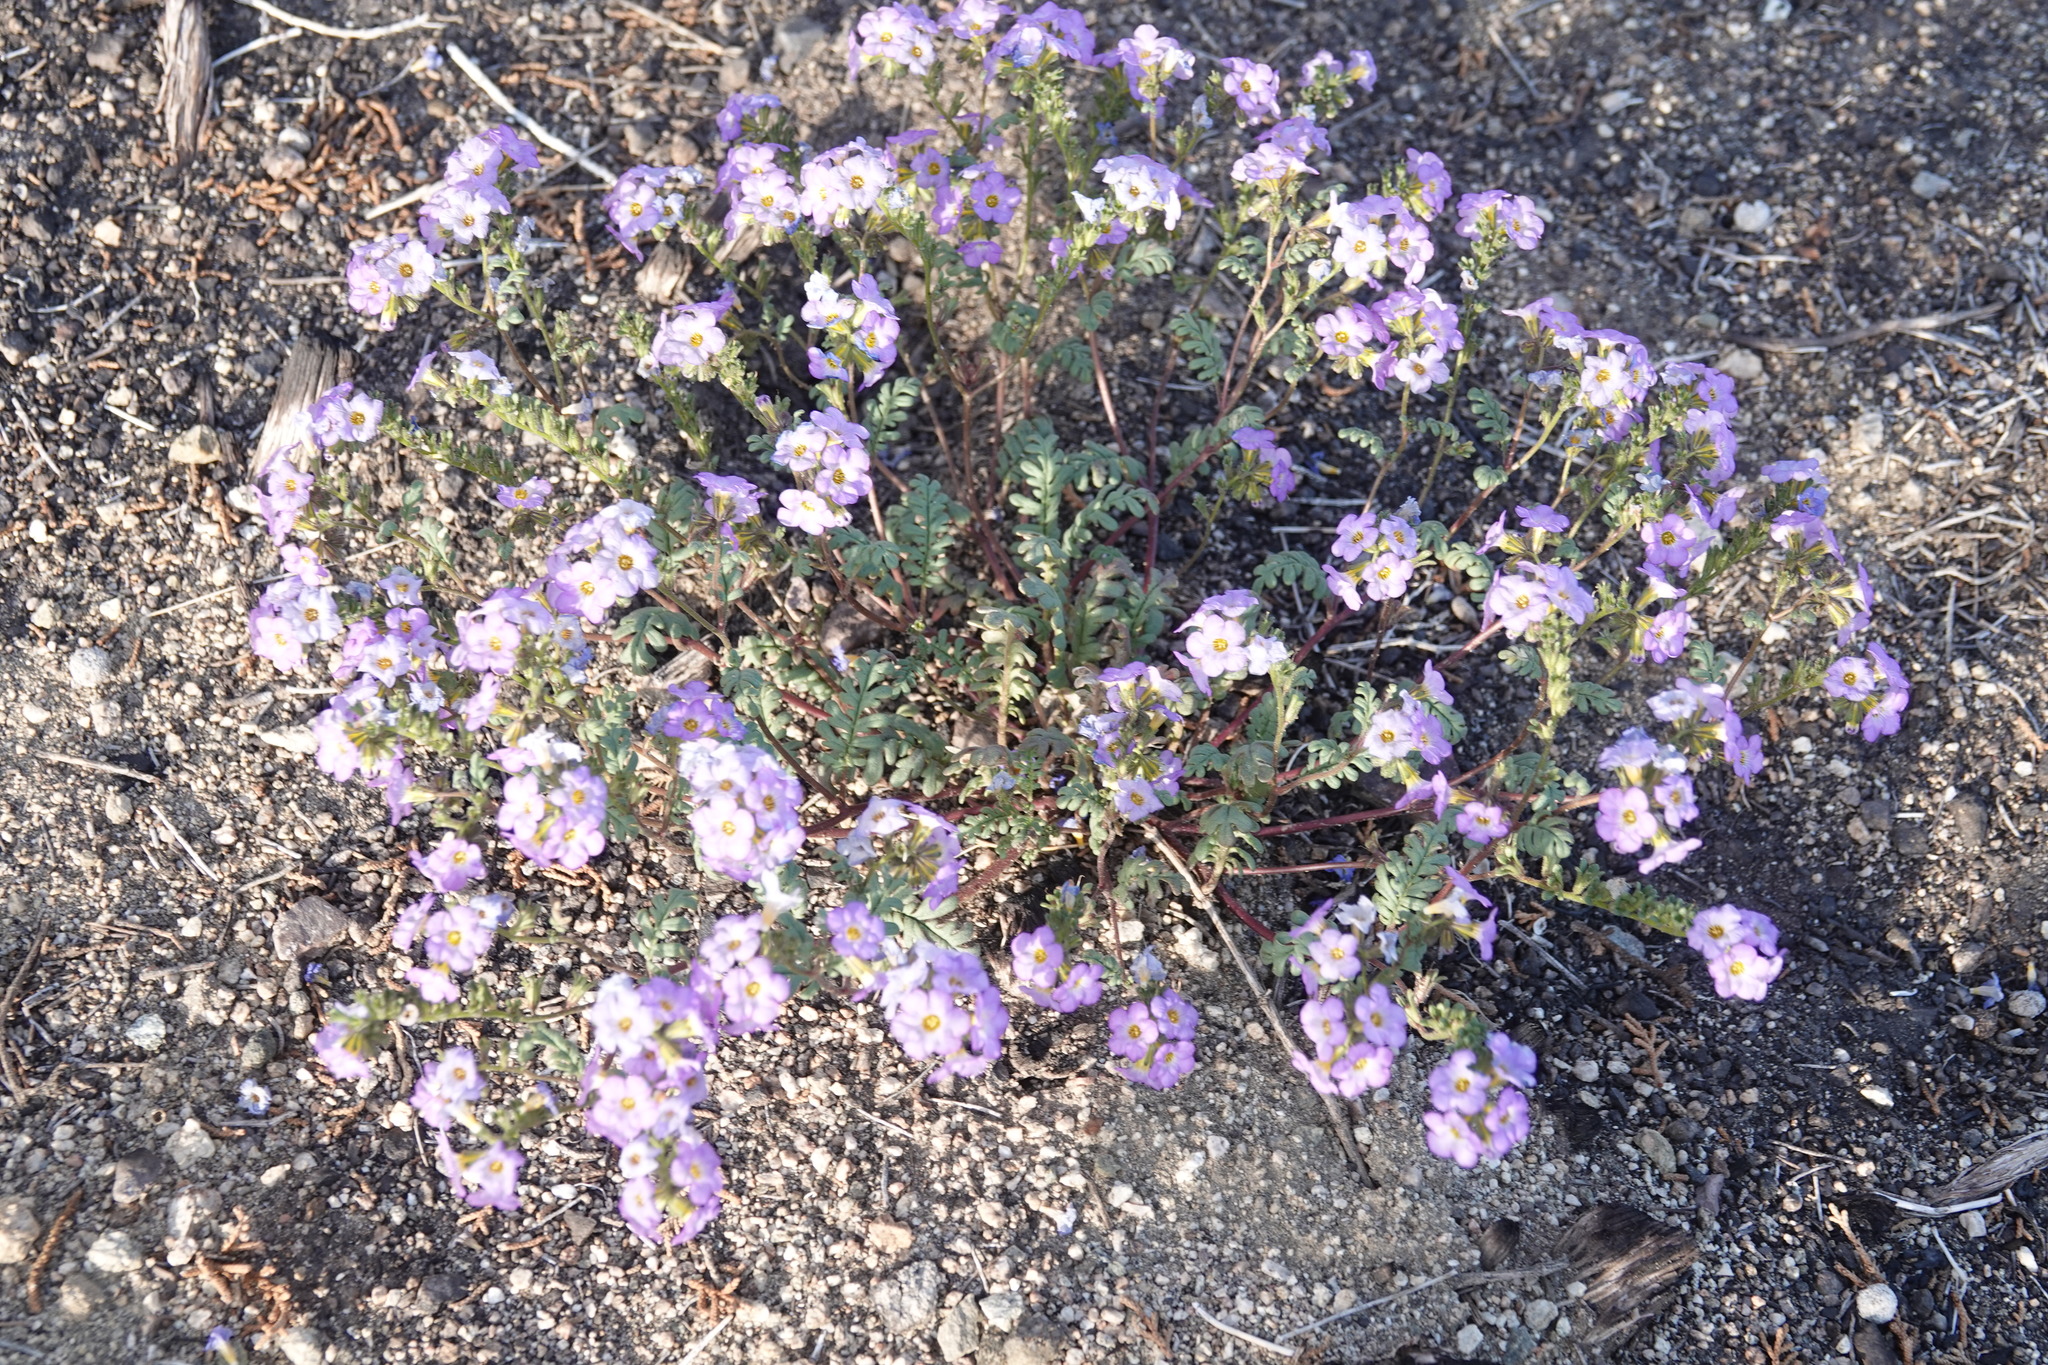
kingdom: Plantae
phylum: Tracheophyta
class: Magnoliopsida
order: Boraginales
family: Hydrophyllaceae
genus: Phacelia
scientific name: Phacelia fremontii
